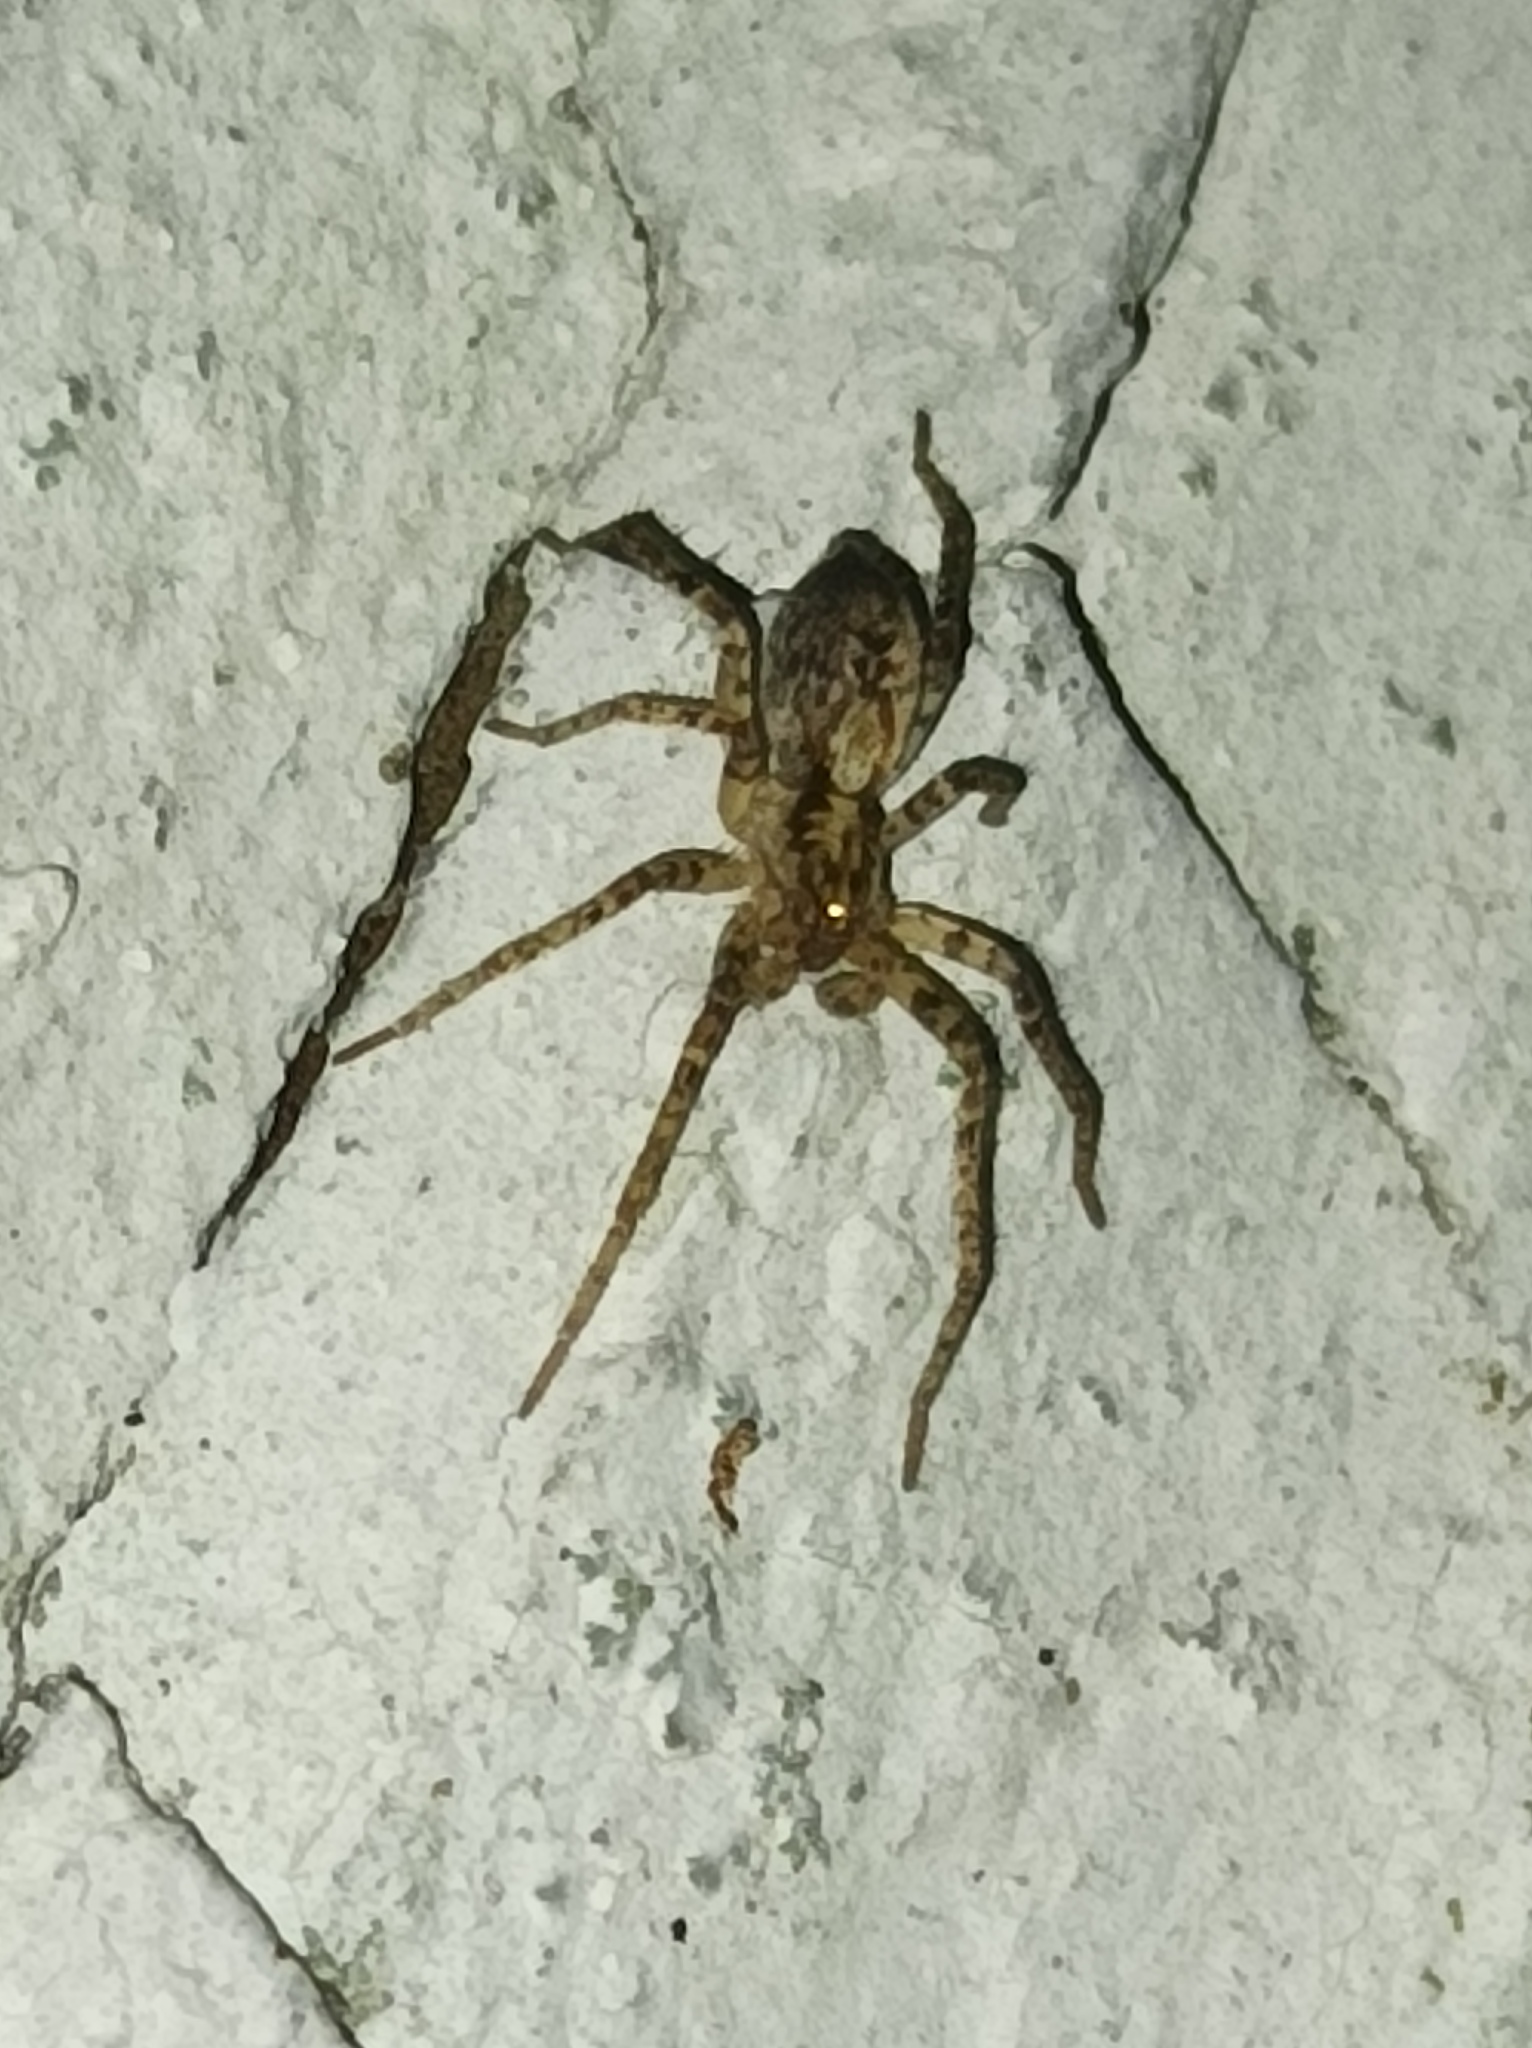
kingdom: Animalia
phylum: Arthropoda
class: Arachnida
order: Araneae
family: Anyphaenidae
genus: Anyphaena
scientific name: Anyphaena accentuata
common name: Buzzing spider
